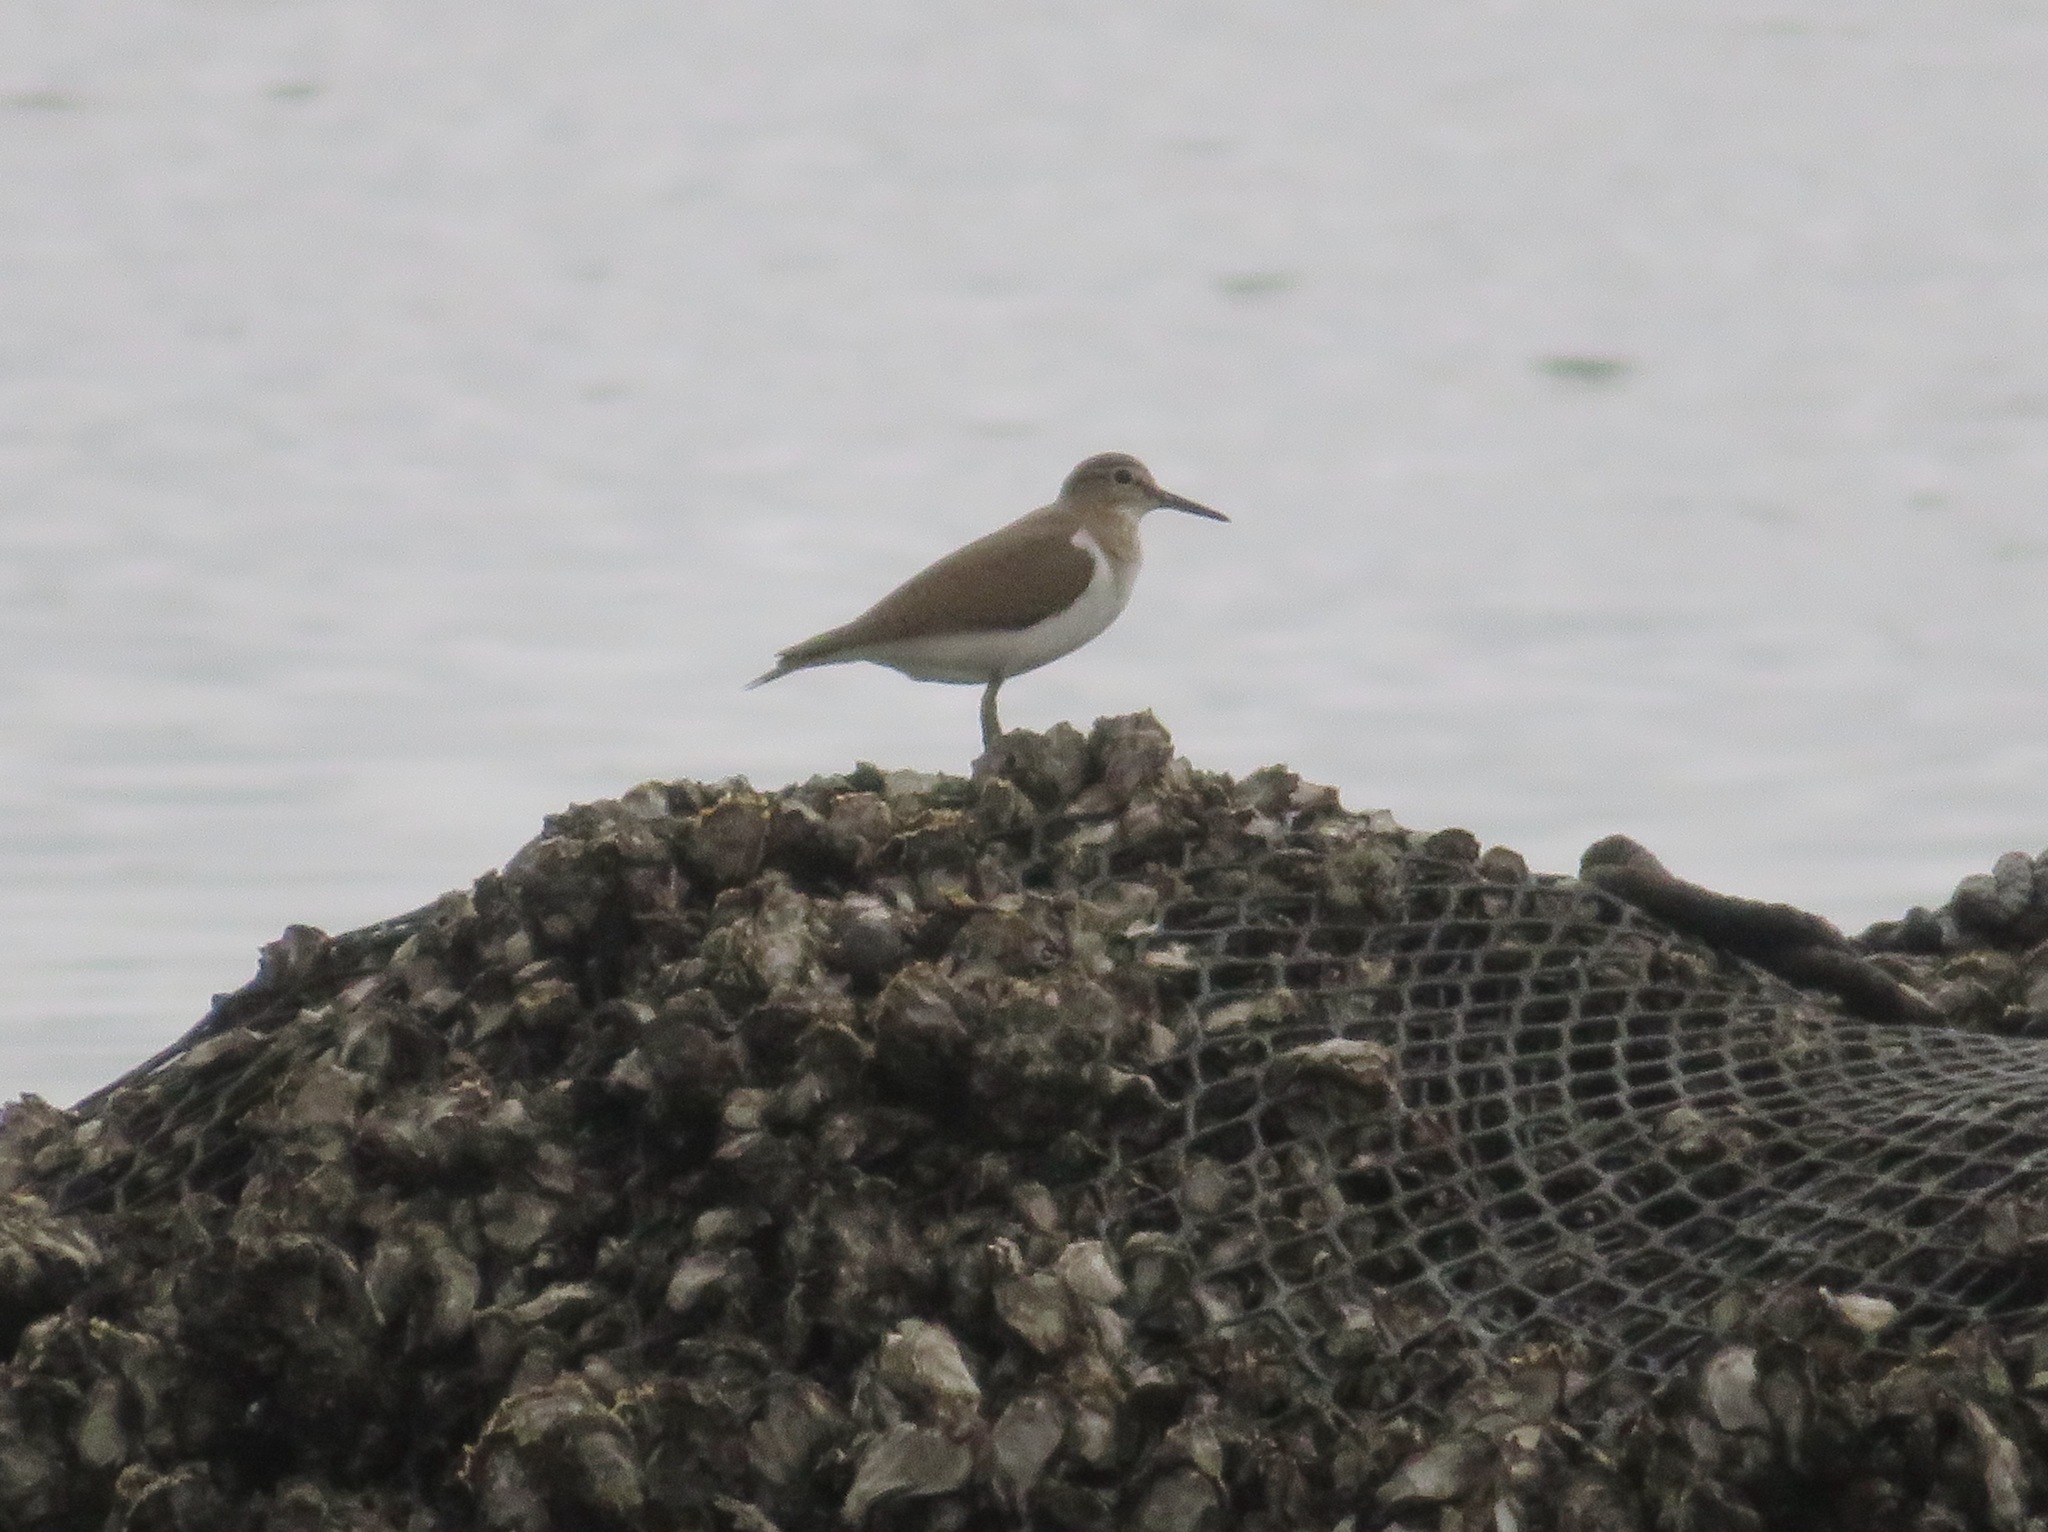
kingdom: Animalia
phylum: Chordata
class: Aves
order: Charadriiformes
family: Scolopacidae
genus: Actitis
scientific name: Actitis hypoleucos
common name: Common sandpiper
